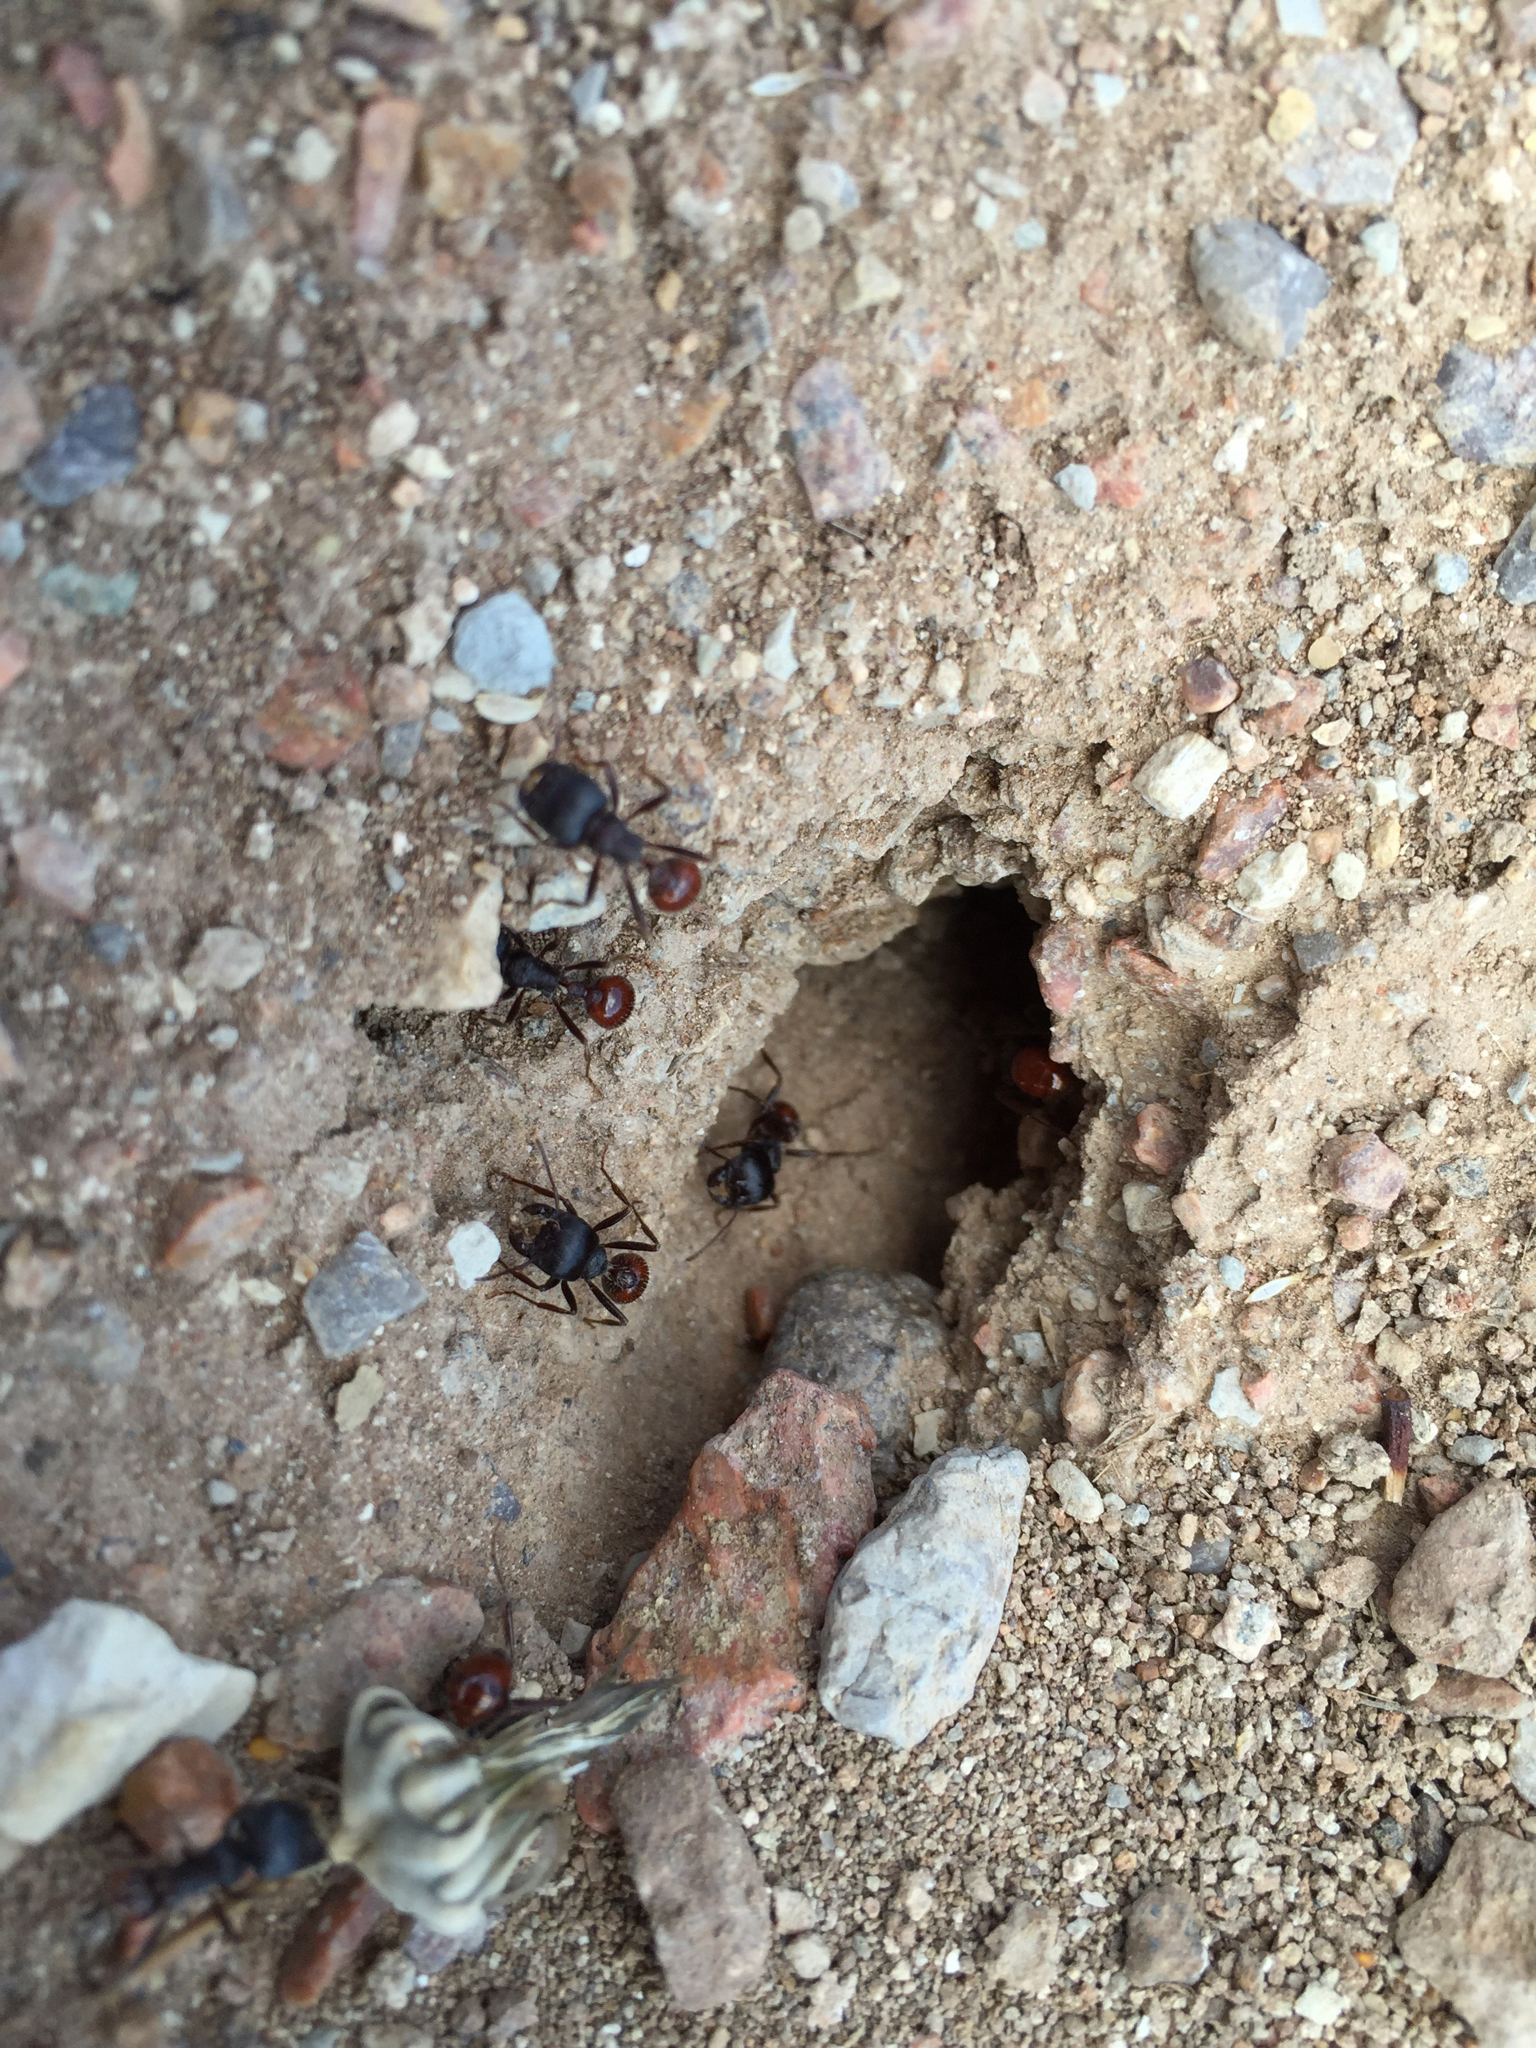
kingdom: Animalia
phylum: Arthropoda
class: Insecta
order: Hymenoptera
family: Formicidae
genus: Pogonomyrmex
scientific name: Pogonomyrmex rugosus
